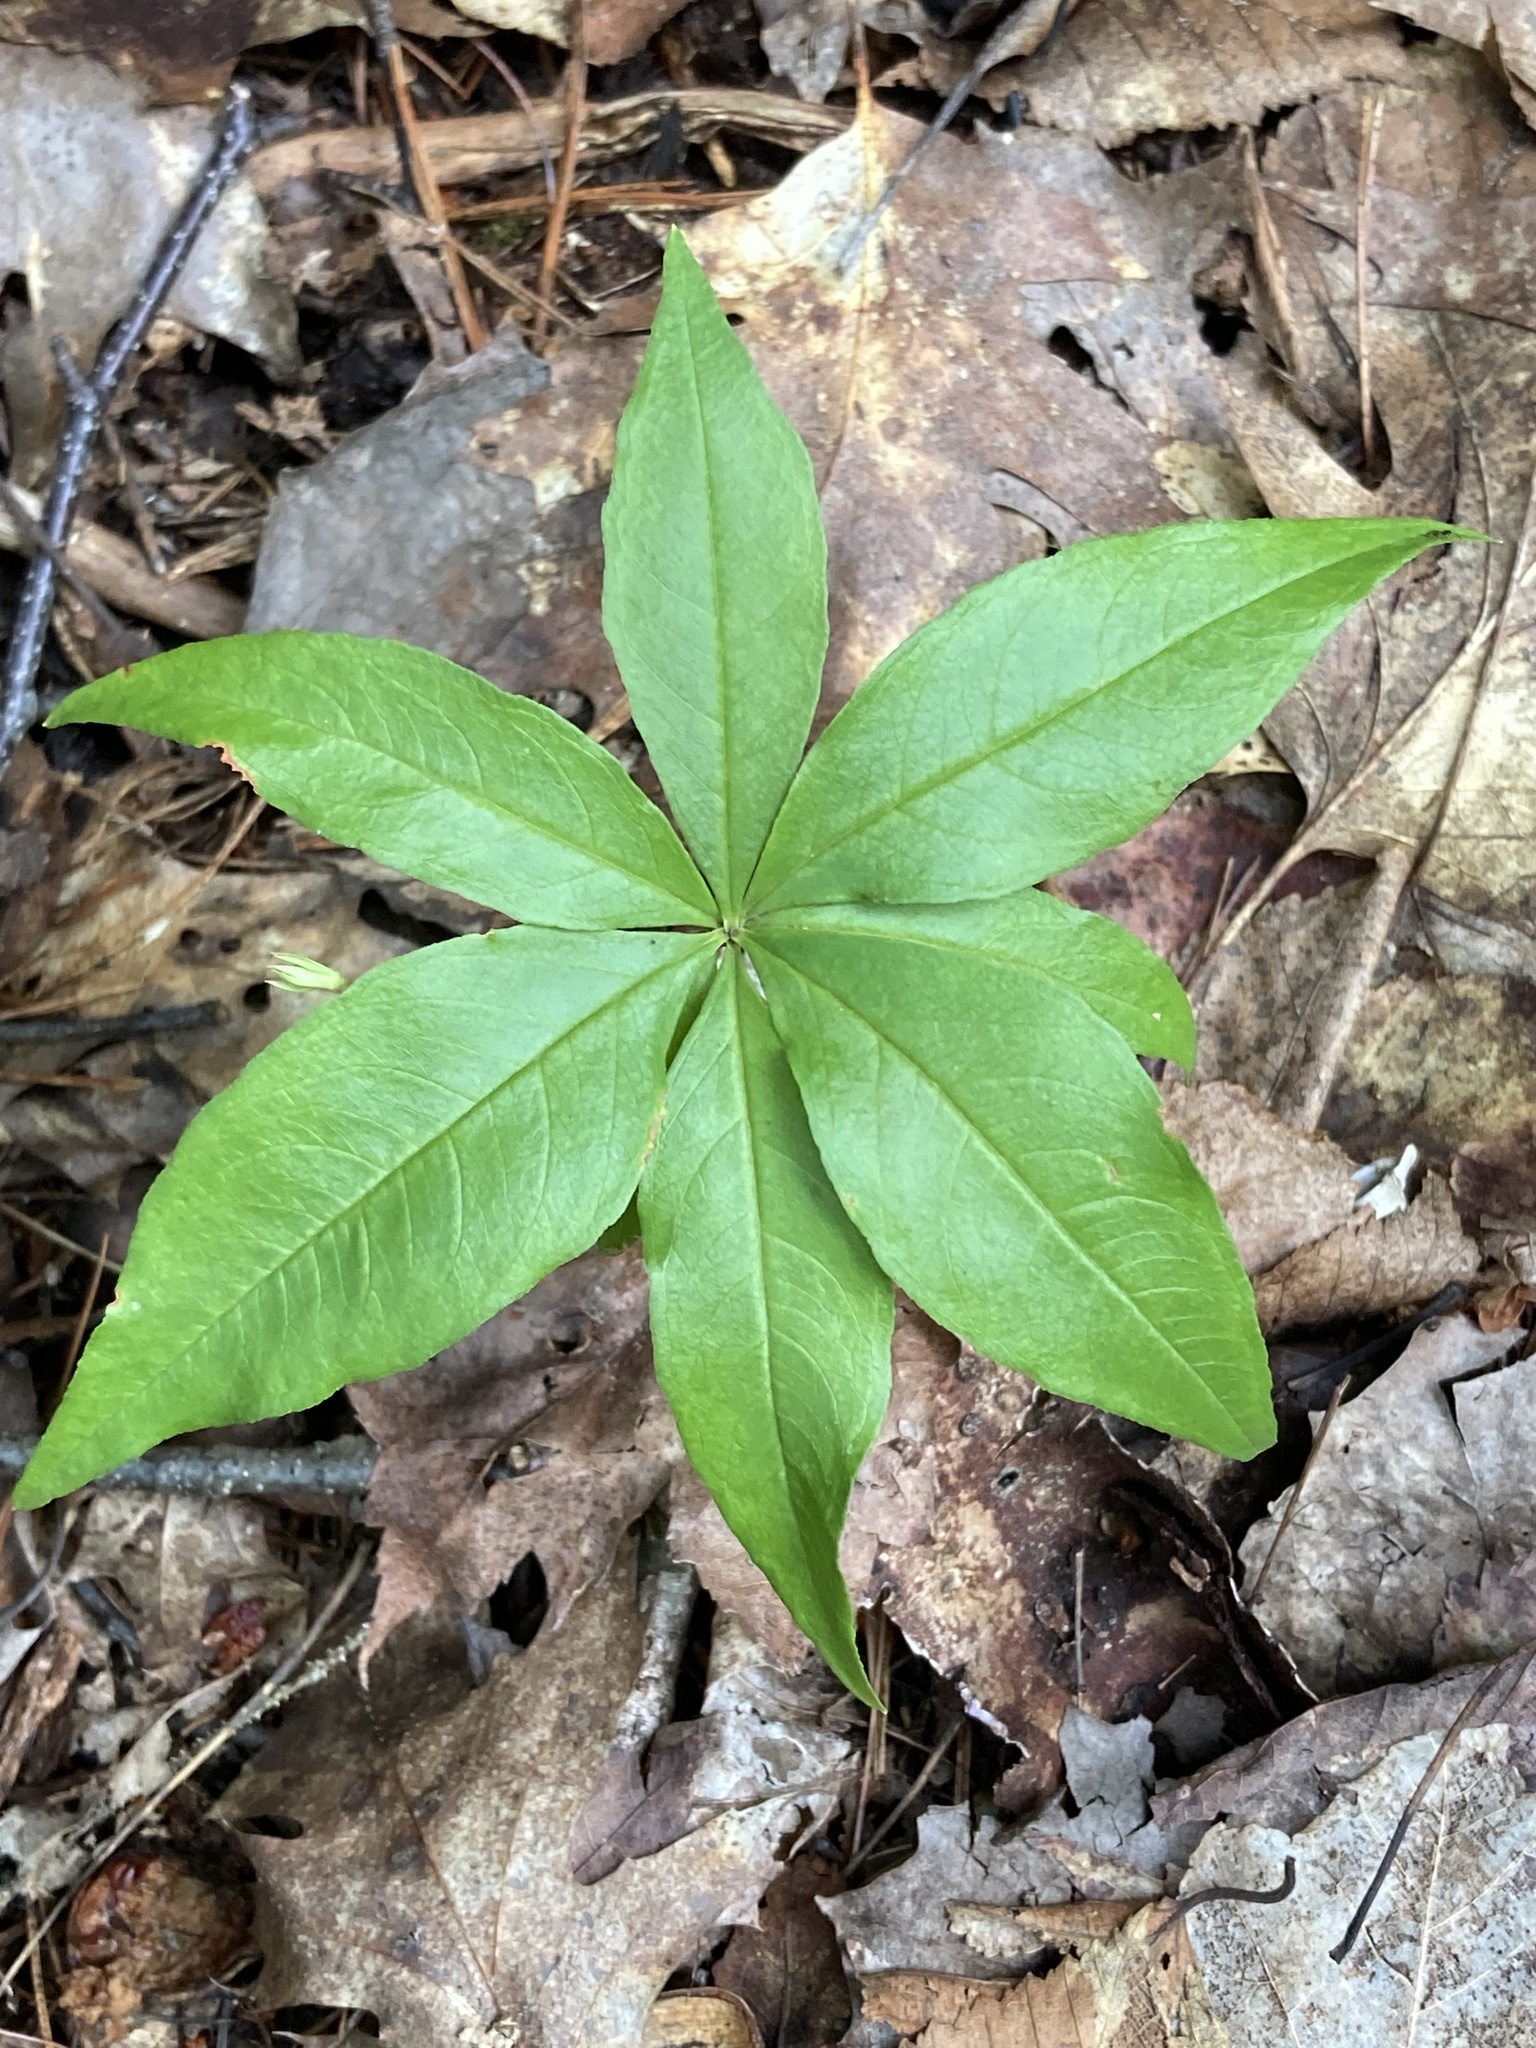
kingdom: Plantae
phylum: Tracheophyta
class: Magnoliopsida
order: Ericales
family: Primulaceae
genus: Lysimachia
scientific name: Lysimachia borealis
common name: American starflower
